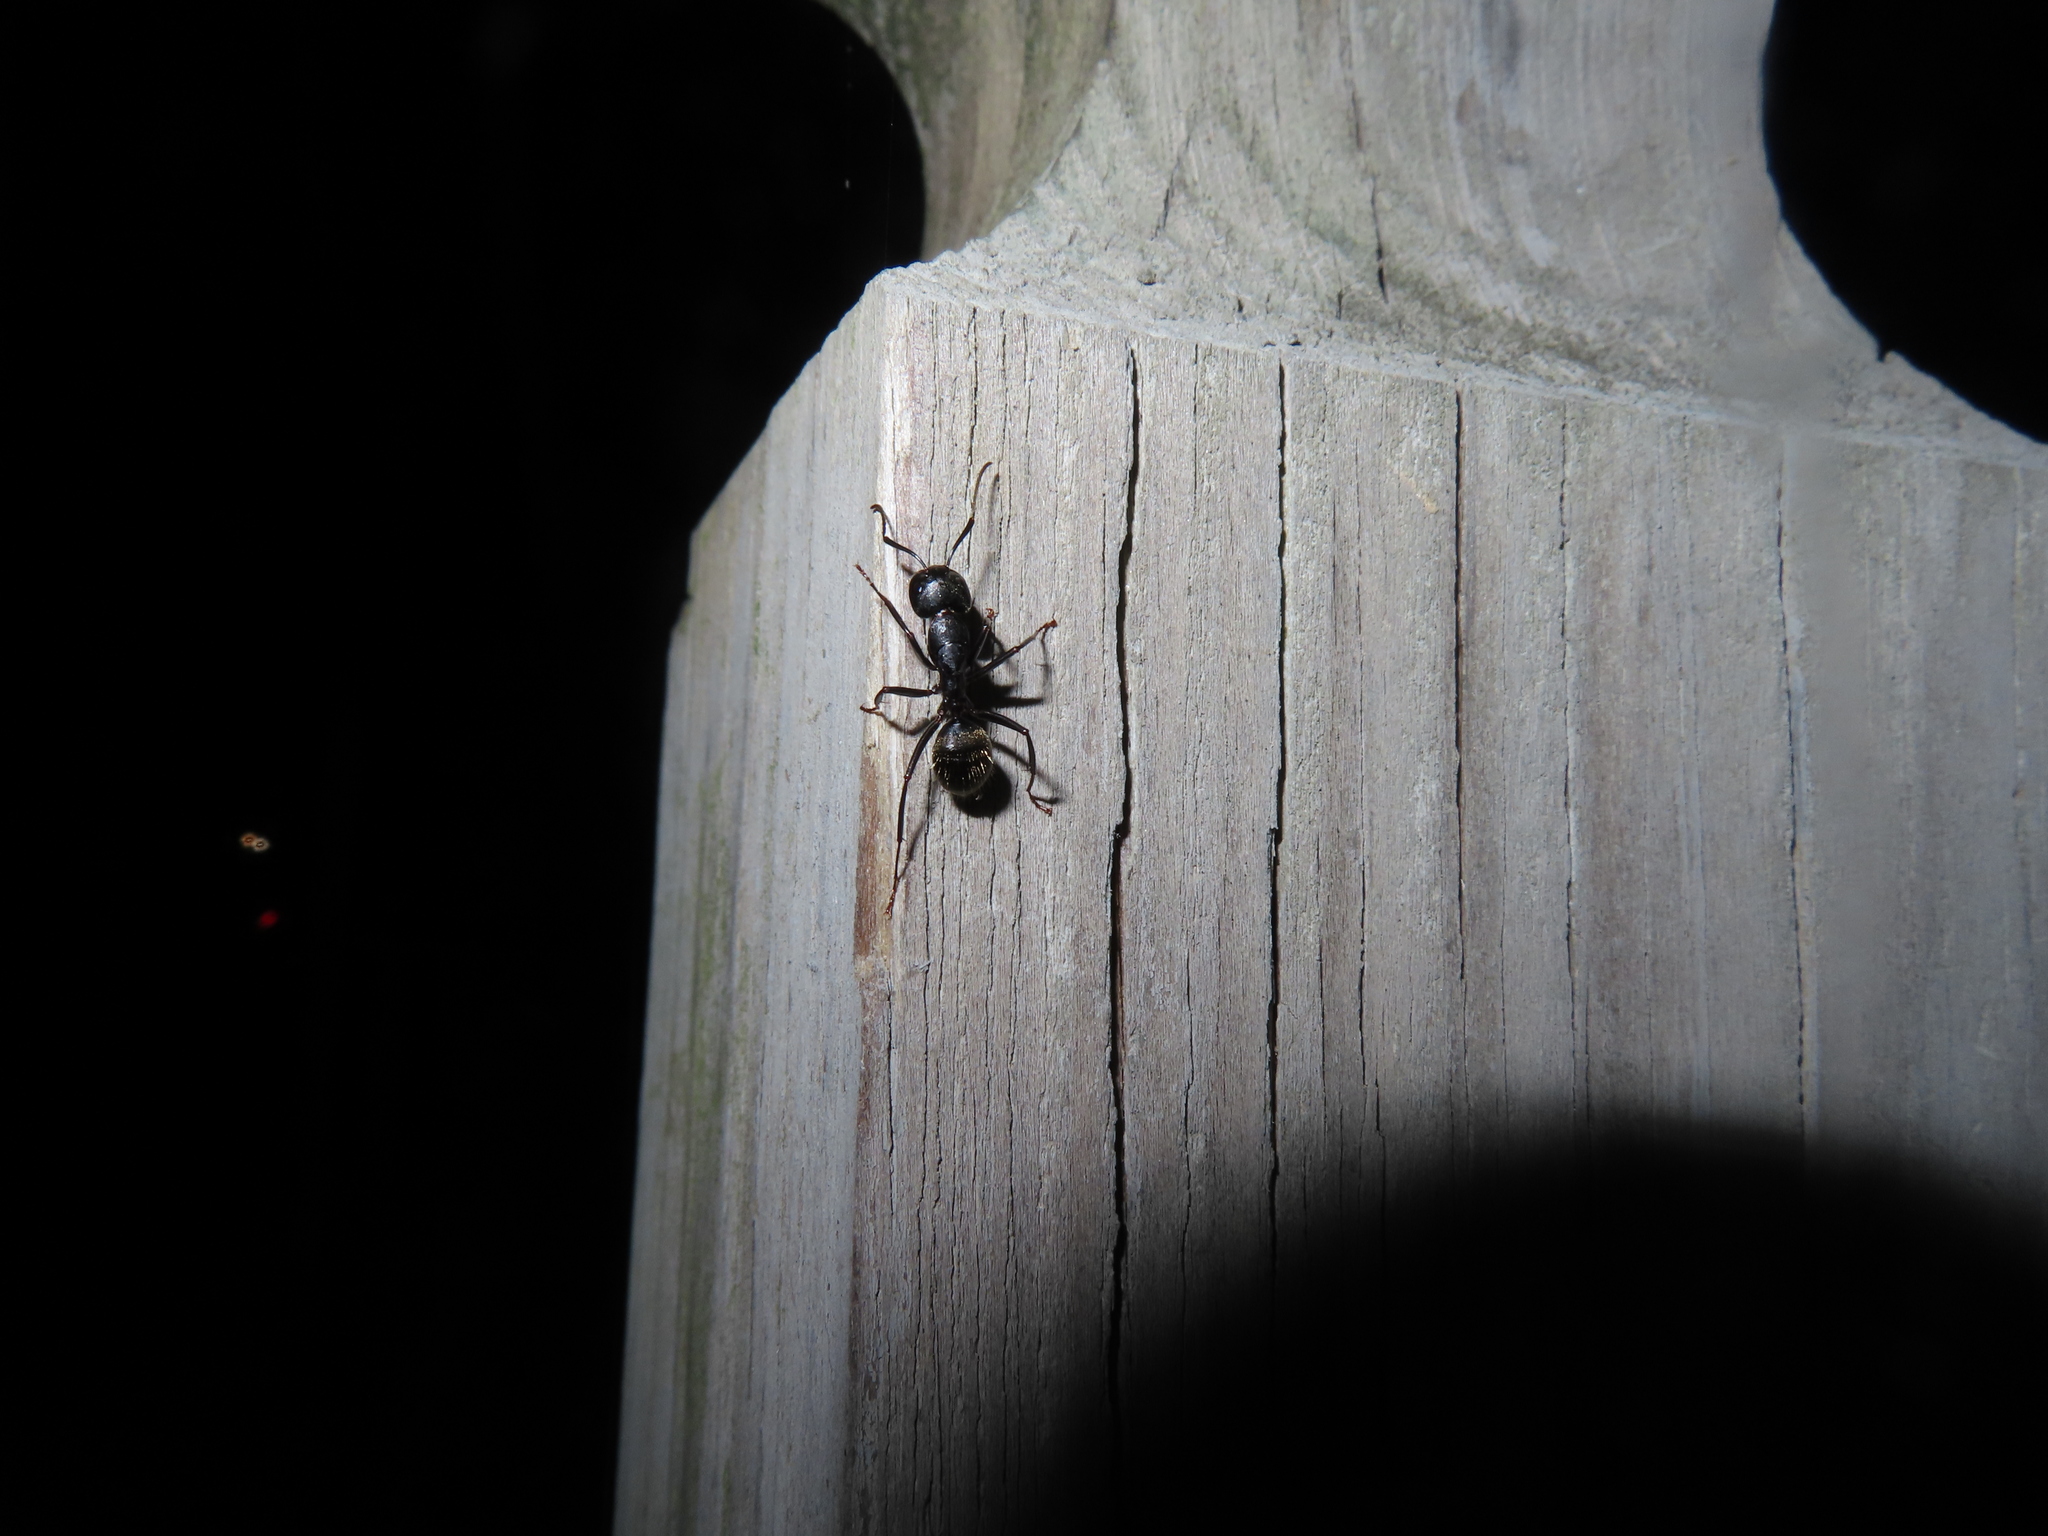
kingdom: Animalia
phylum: Arthropoda
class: Insecta
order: Hymenoptera
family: Formicidae
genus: Camponotus
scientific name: Camponotus pennsylvanicus
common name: Black carpenter ant
